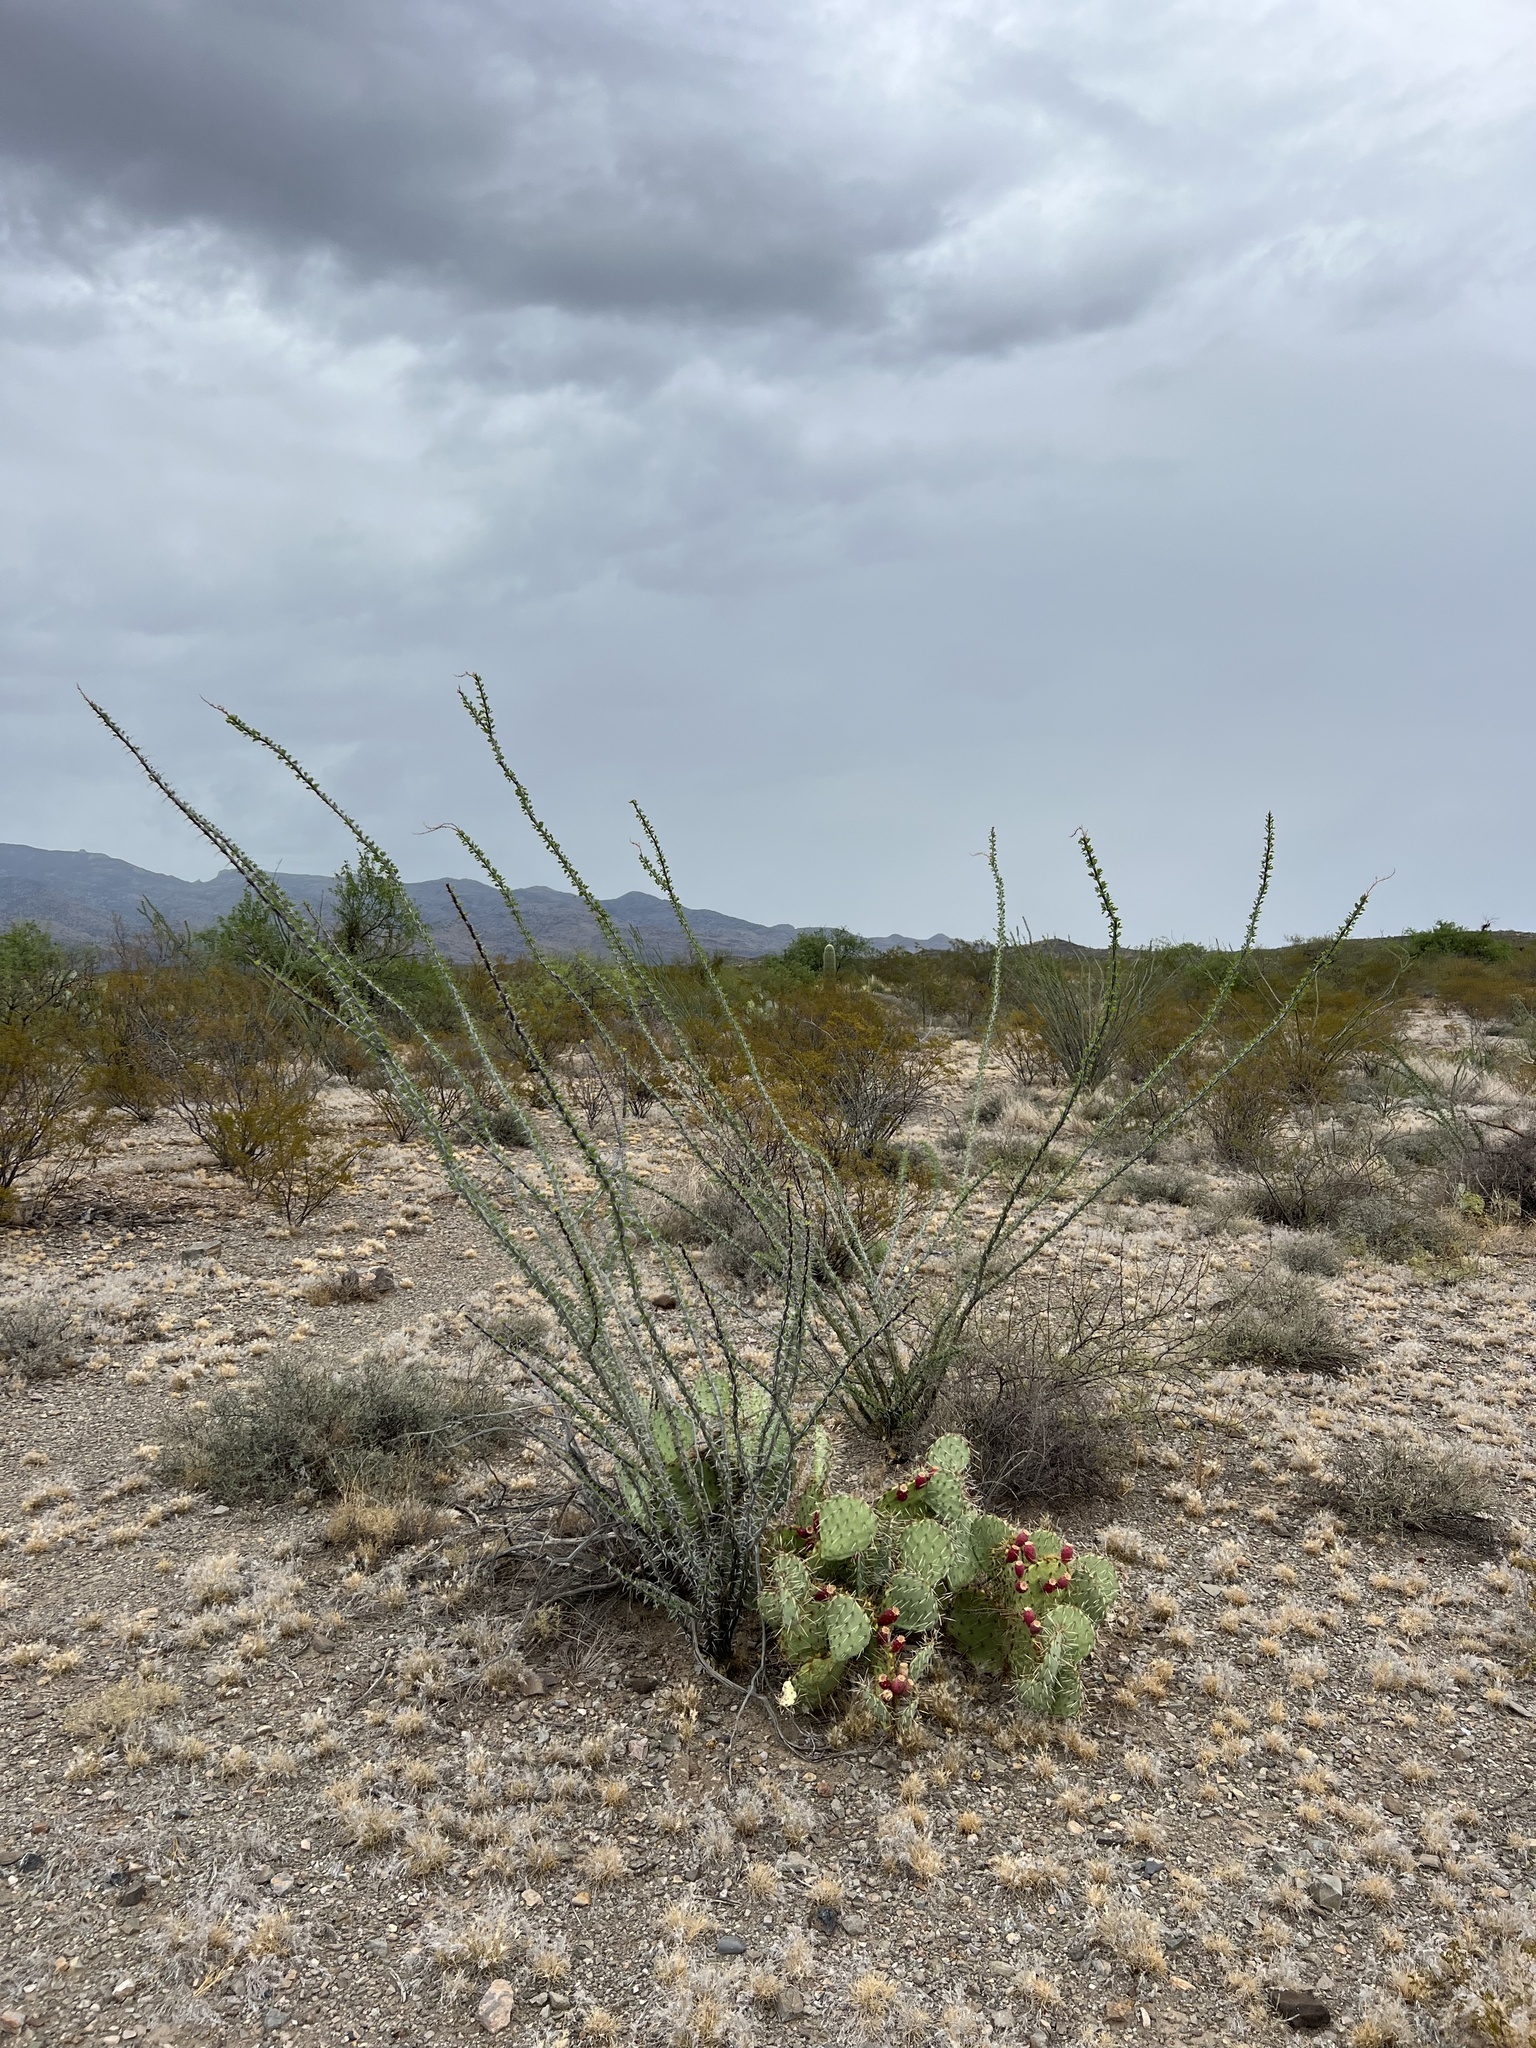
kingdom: Plantae
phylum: Tracheophyta
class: Magnoliopsida
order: Ericales
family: Fouquieriaceae
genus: Fouquieria
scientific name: Fouquieria splendens
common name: Vine-cactus
